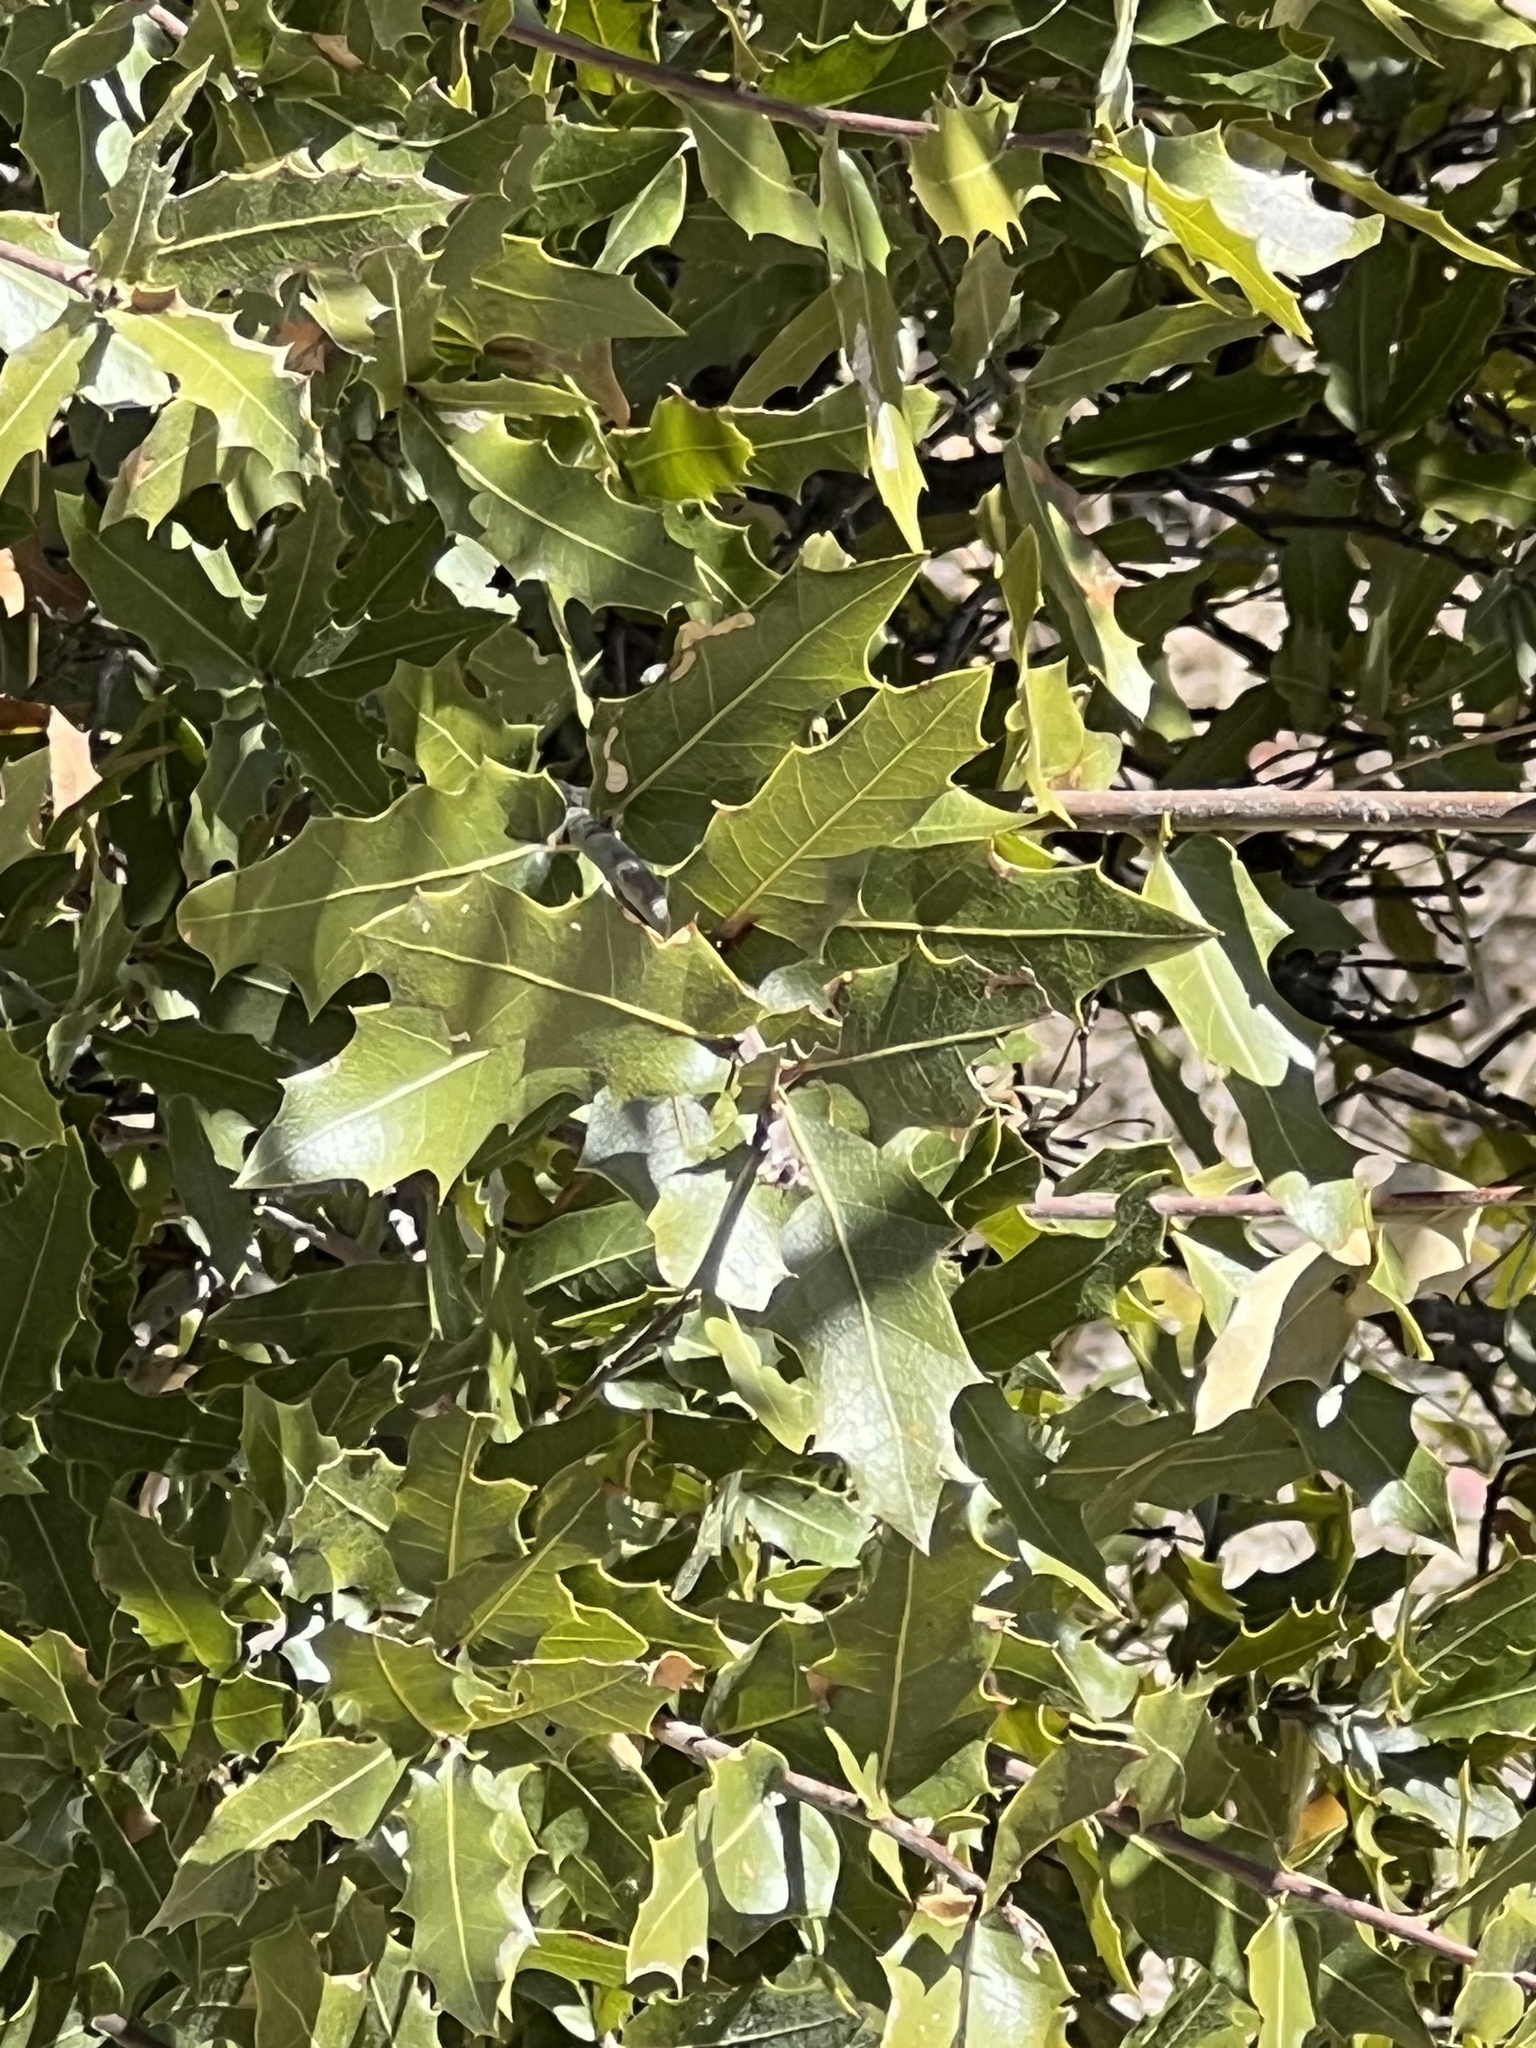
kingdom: Plantae
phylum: Tracheophyta
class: Magnoliopsida
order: Fagales
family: Fagaceae
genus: Quercus
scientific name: Quercus emoryi
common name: Emory oak
